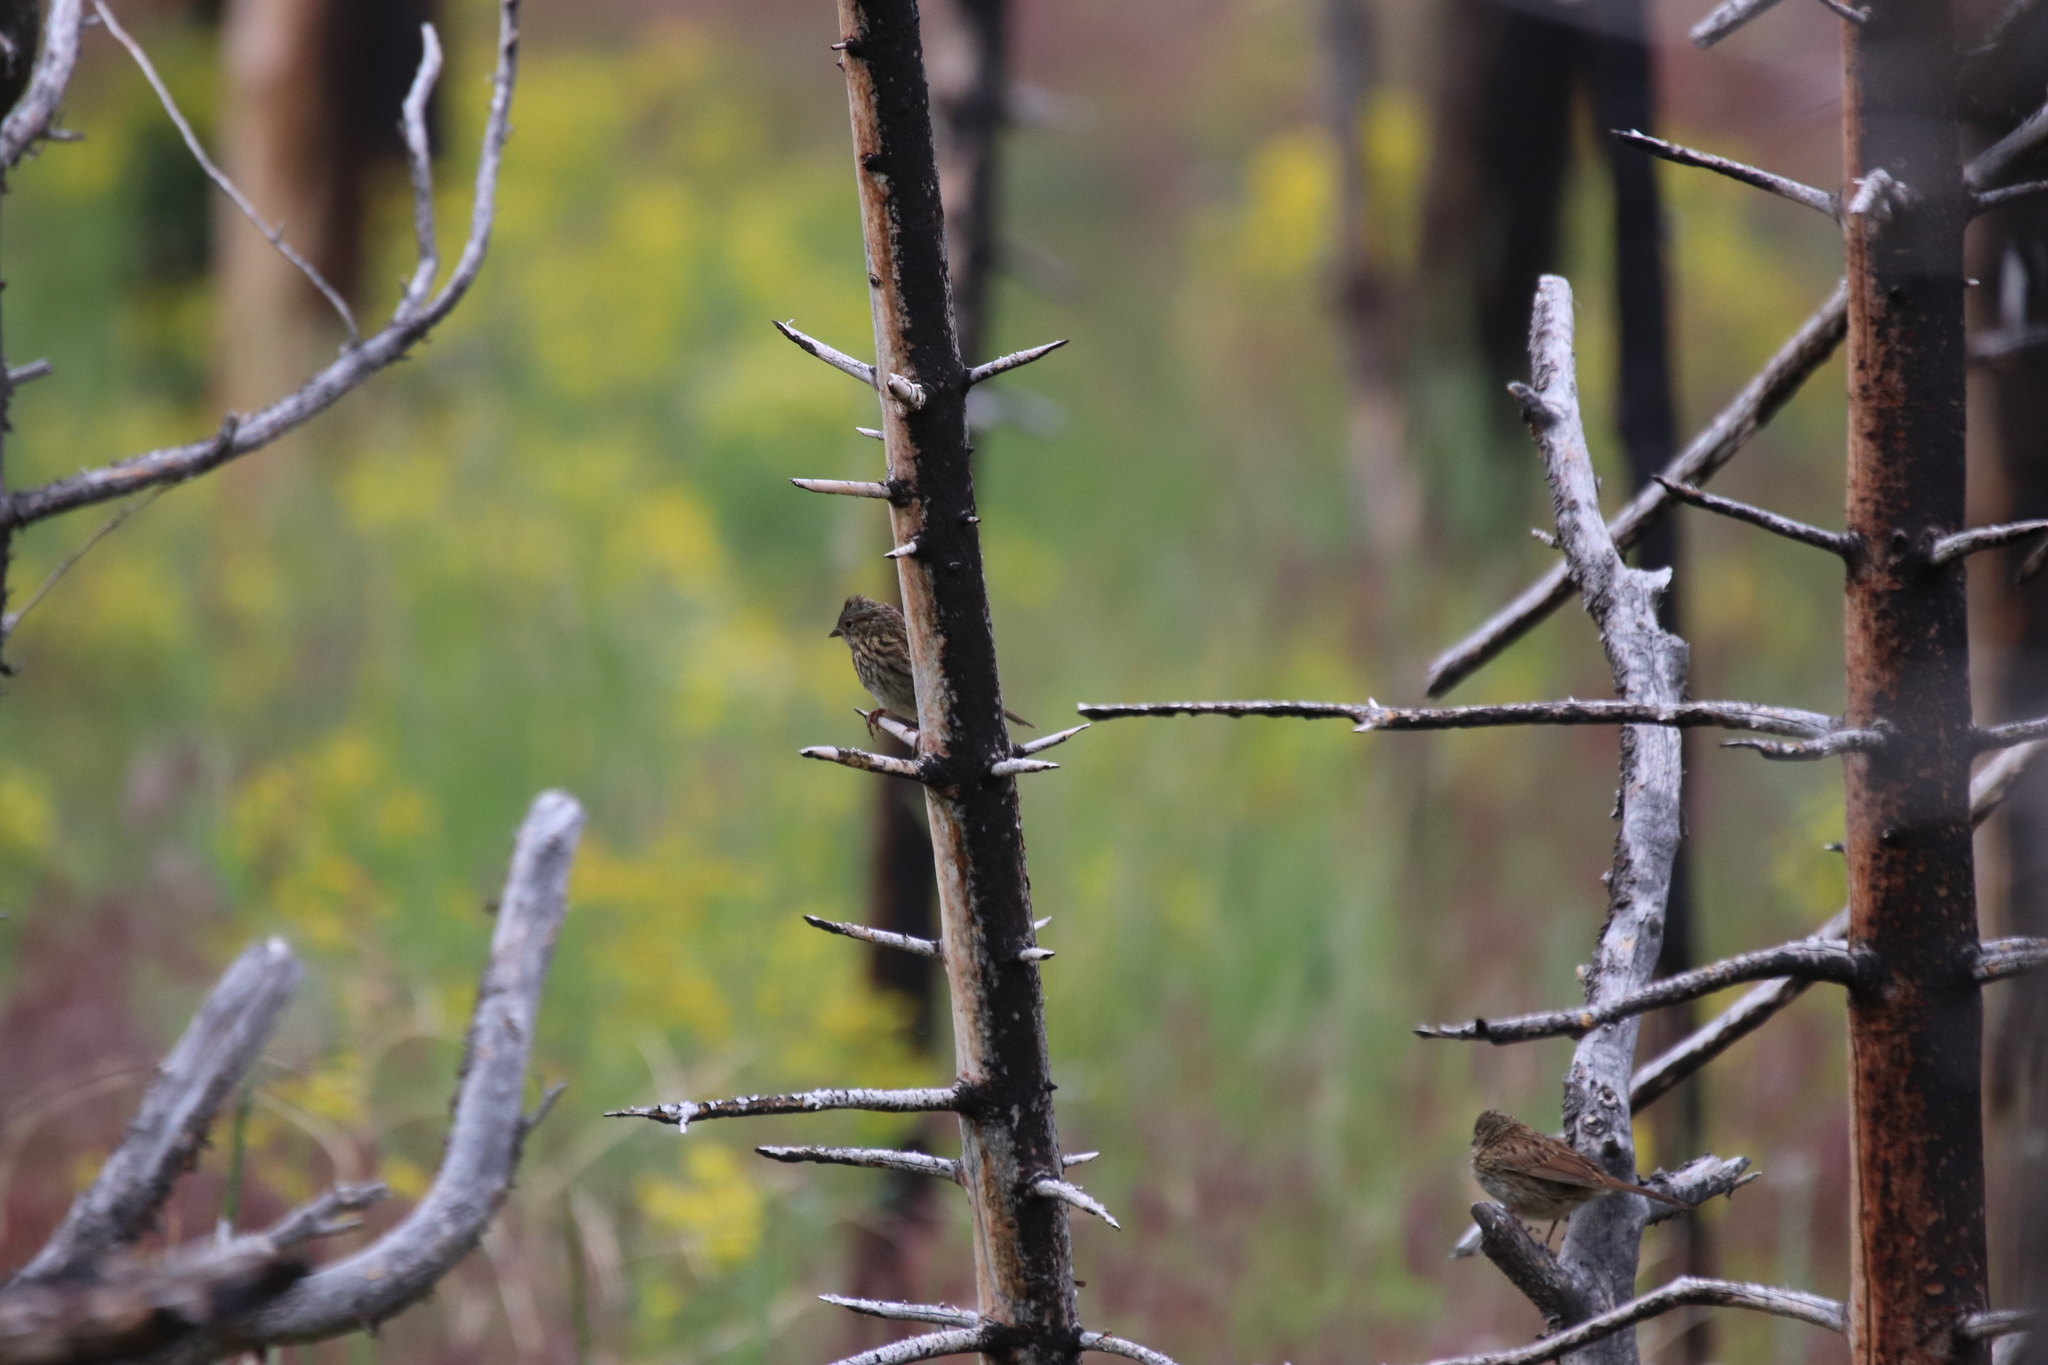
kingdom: Animalia
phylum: Chordata
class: Aves
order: Passeriformes
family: Passerellidae
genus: Melospiza
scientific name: Melospiza lincolnii
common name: Lincoln's sparrow
